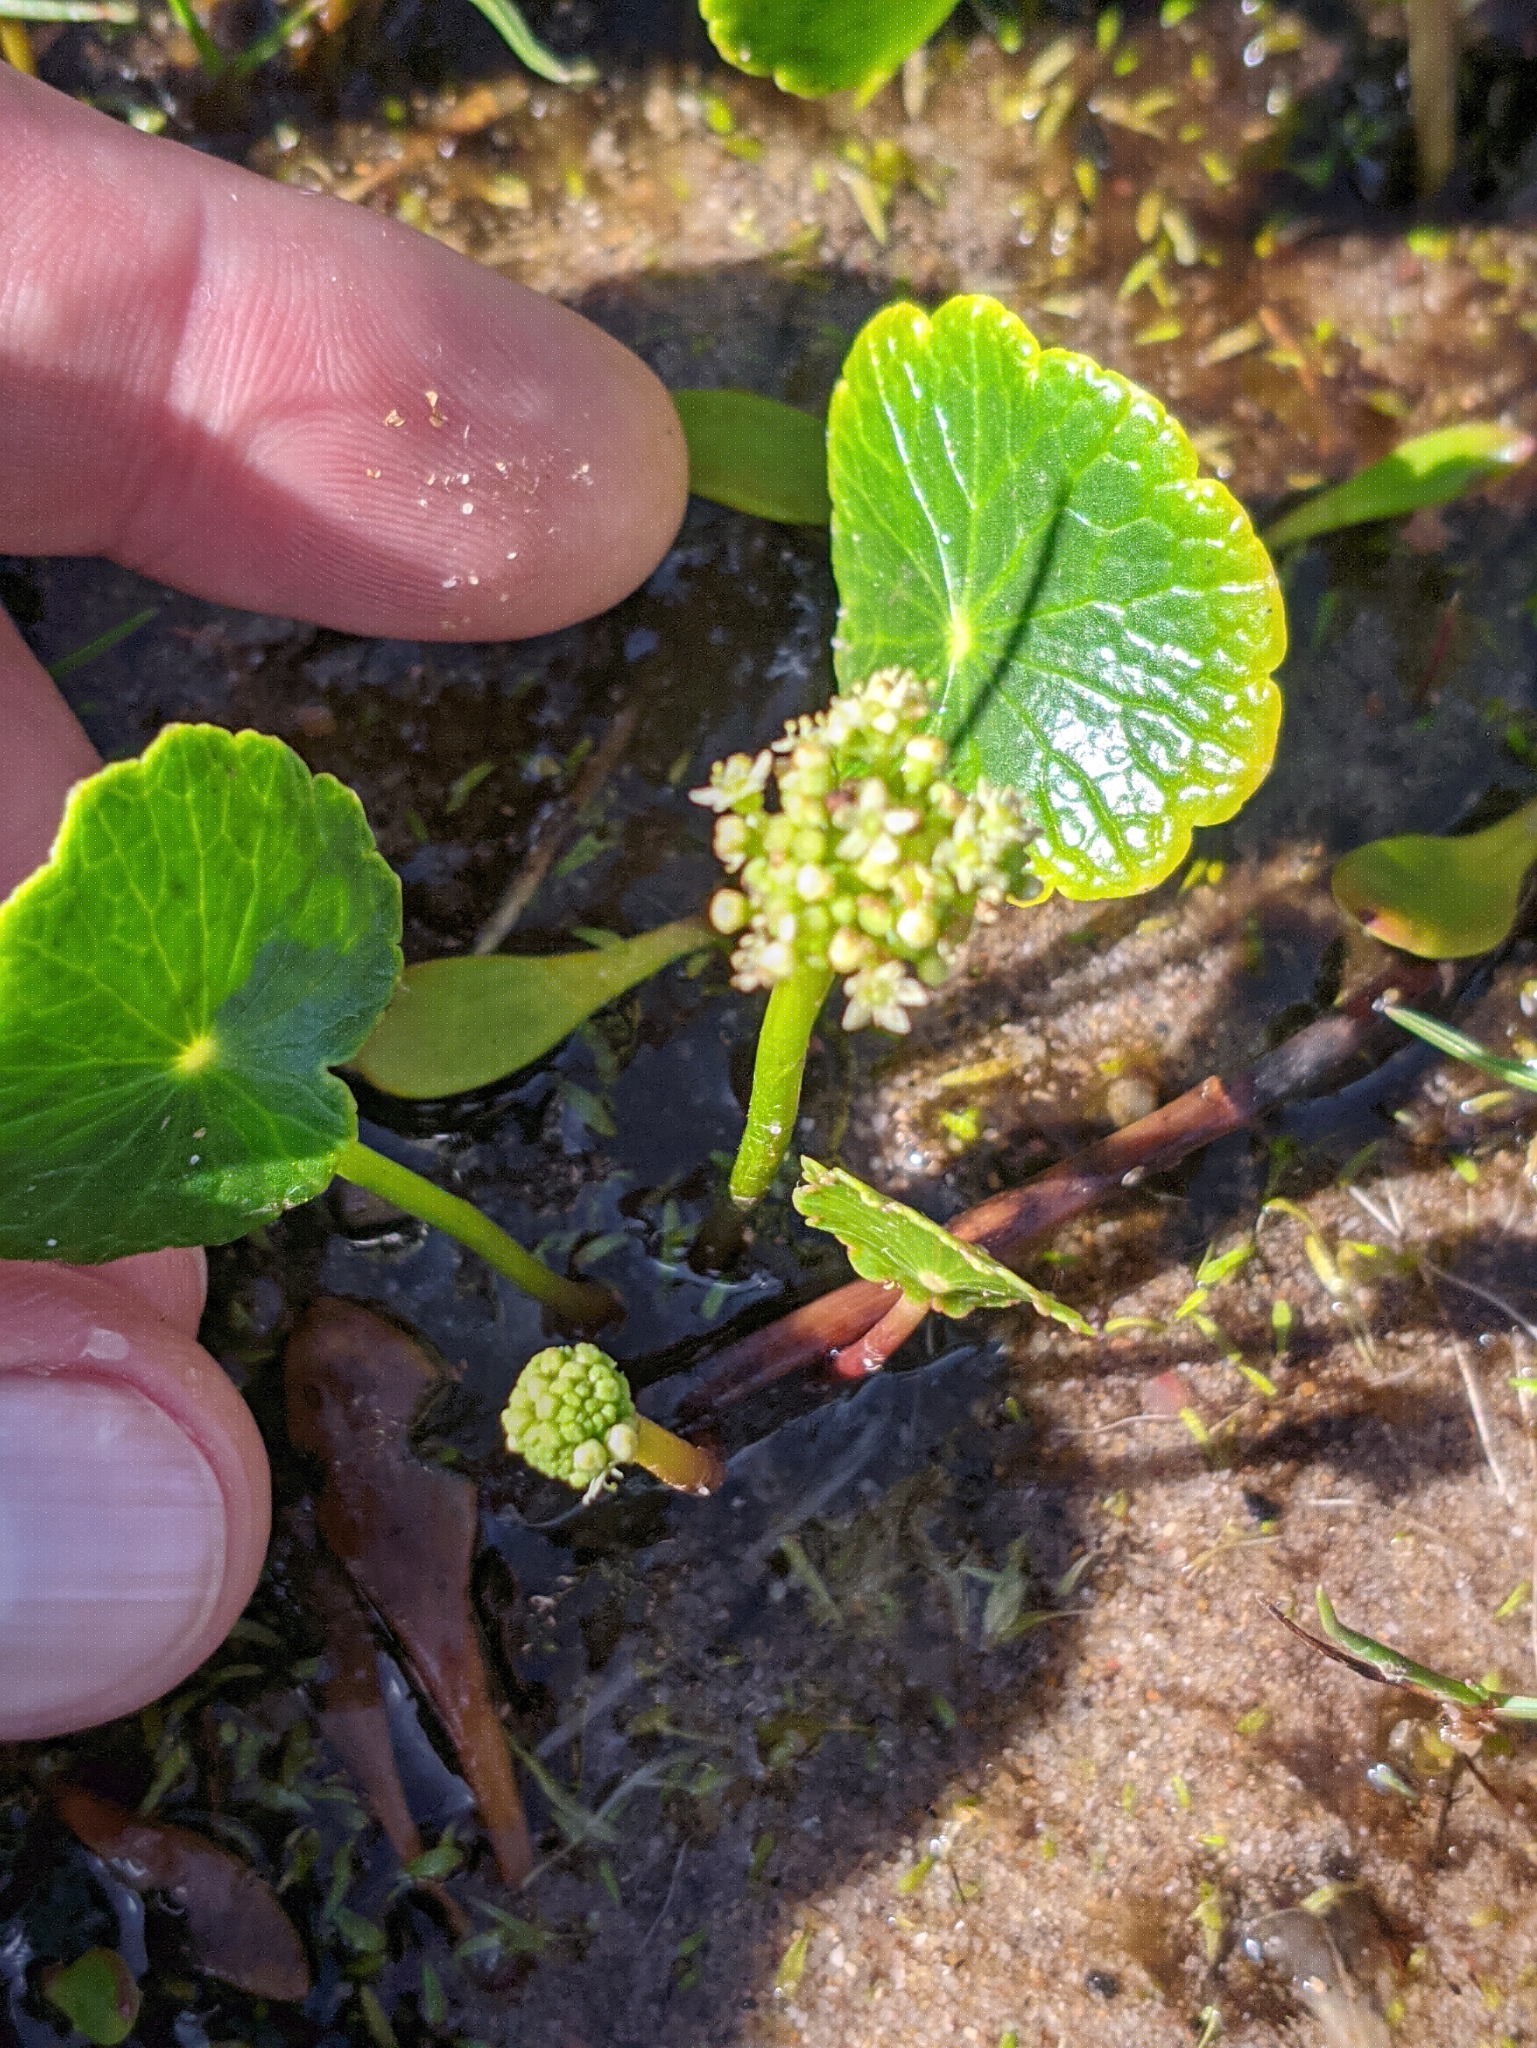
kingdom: Plantae
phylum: Tracheophyta
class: Magnoliopsida
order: Apiales
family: Araliaceae
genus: Hydrocotyle
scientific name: Hydrocotyle bonariensis
